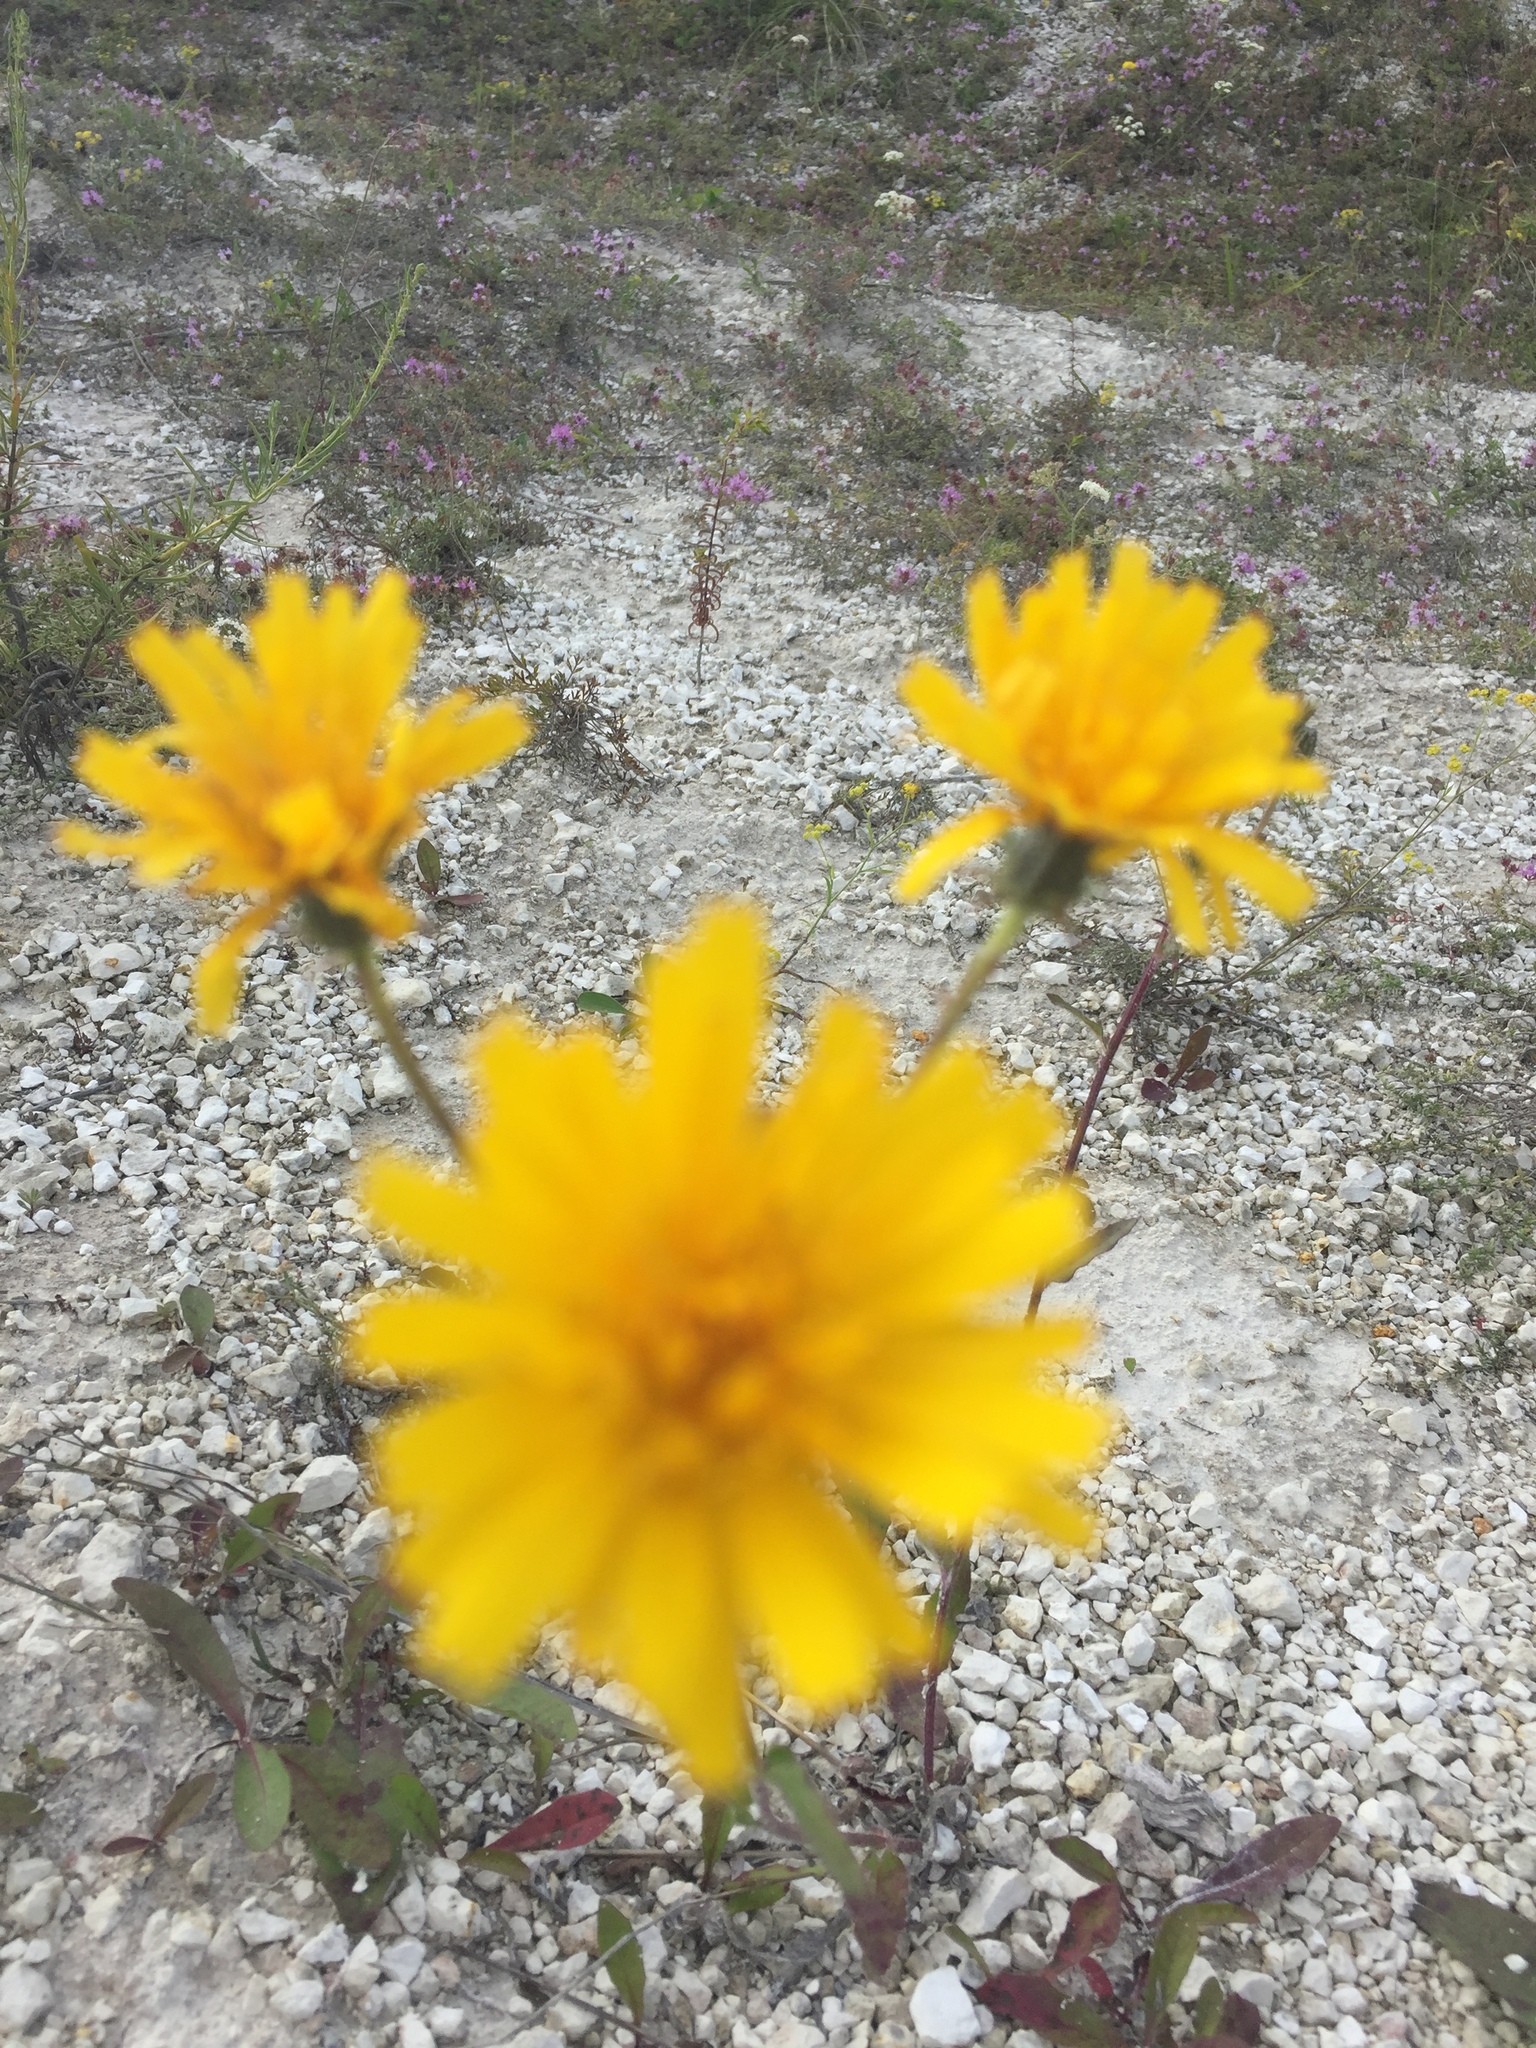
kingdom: Plantae
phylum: Tracheophyta
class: Magnoliopsida
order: Asterales
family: Asteraceae
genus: Hieracium
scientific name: Hieracium umbellatum
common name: Northern hawkweed
